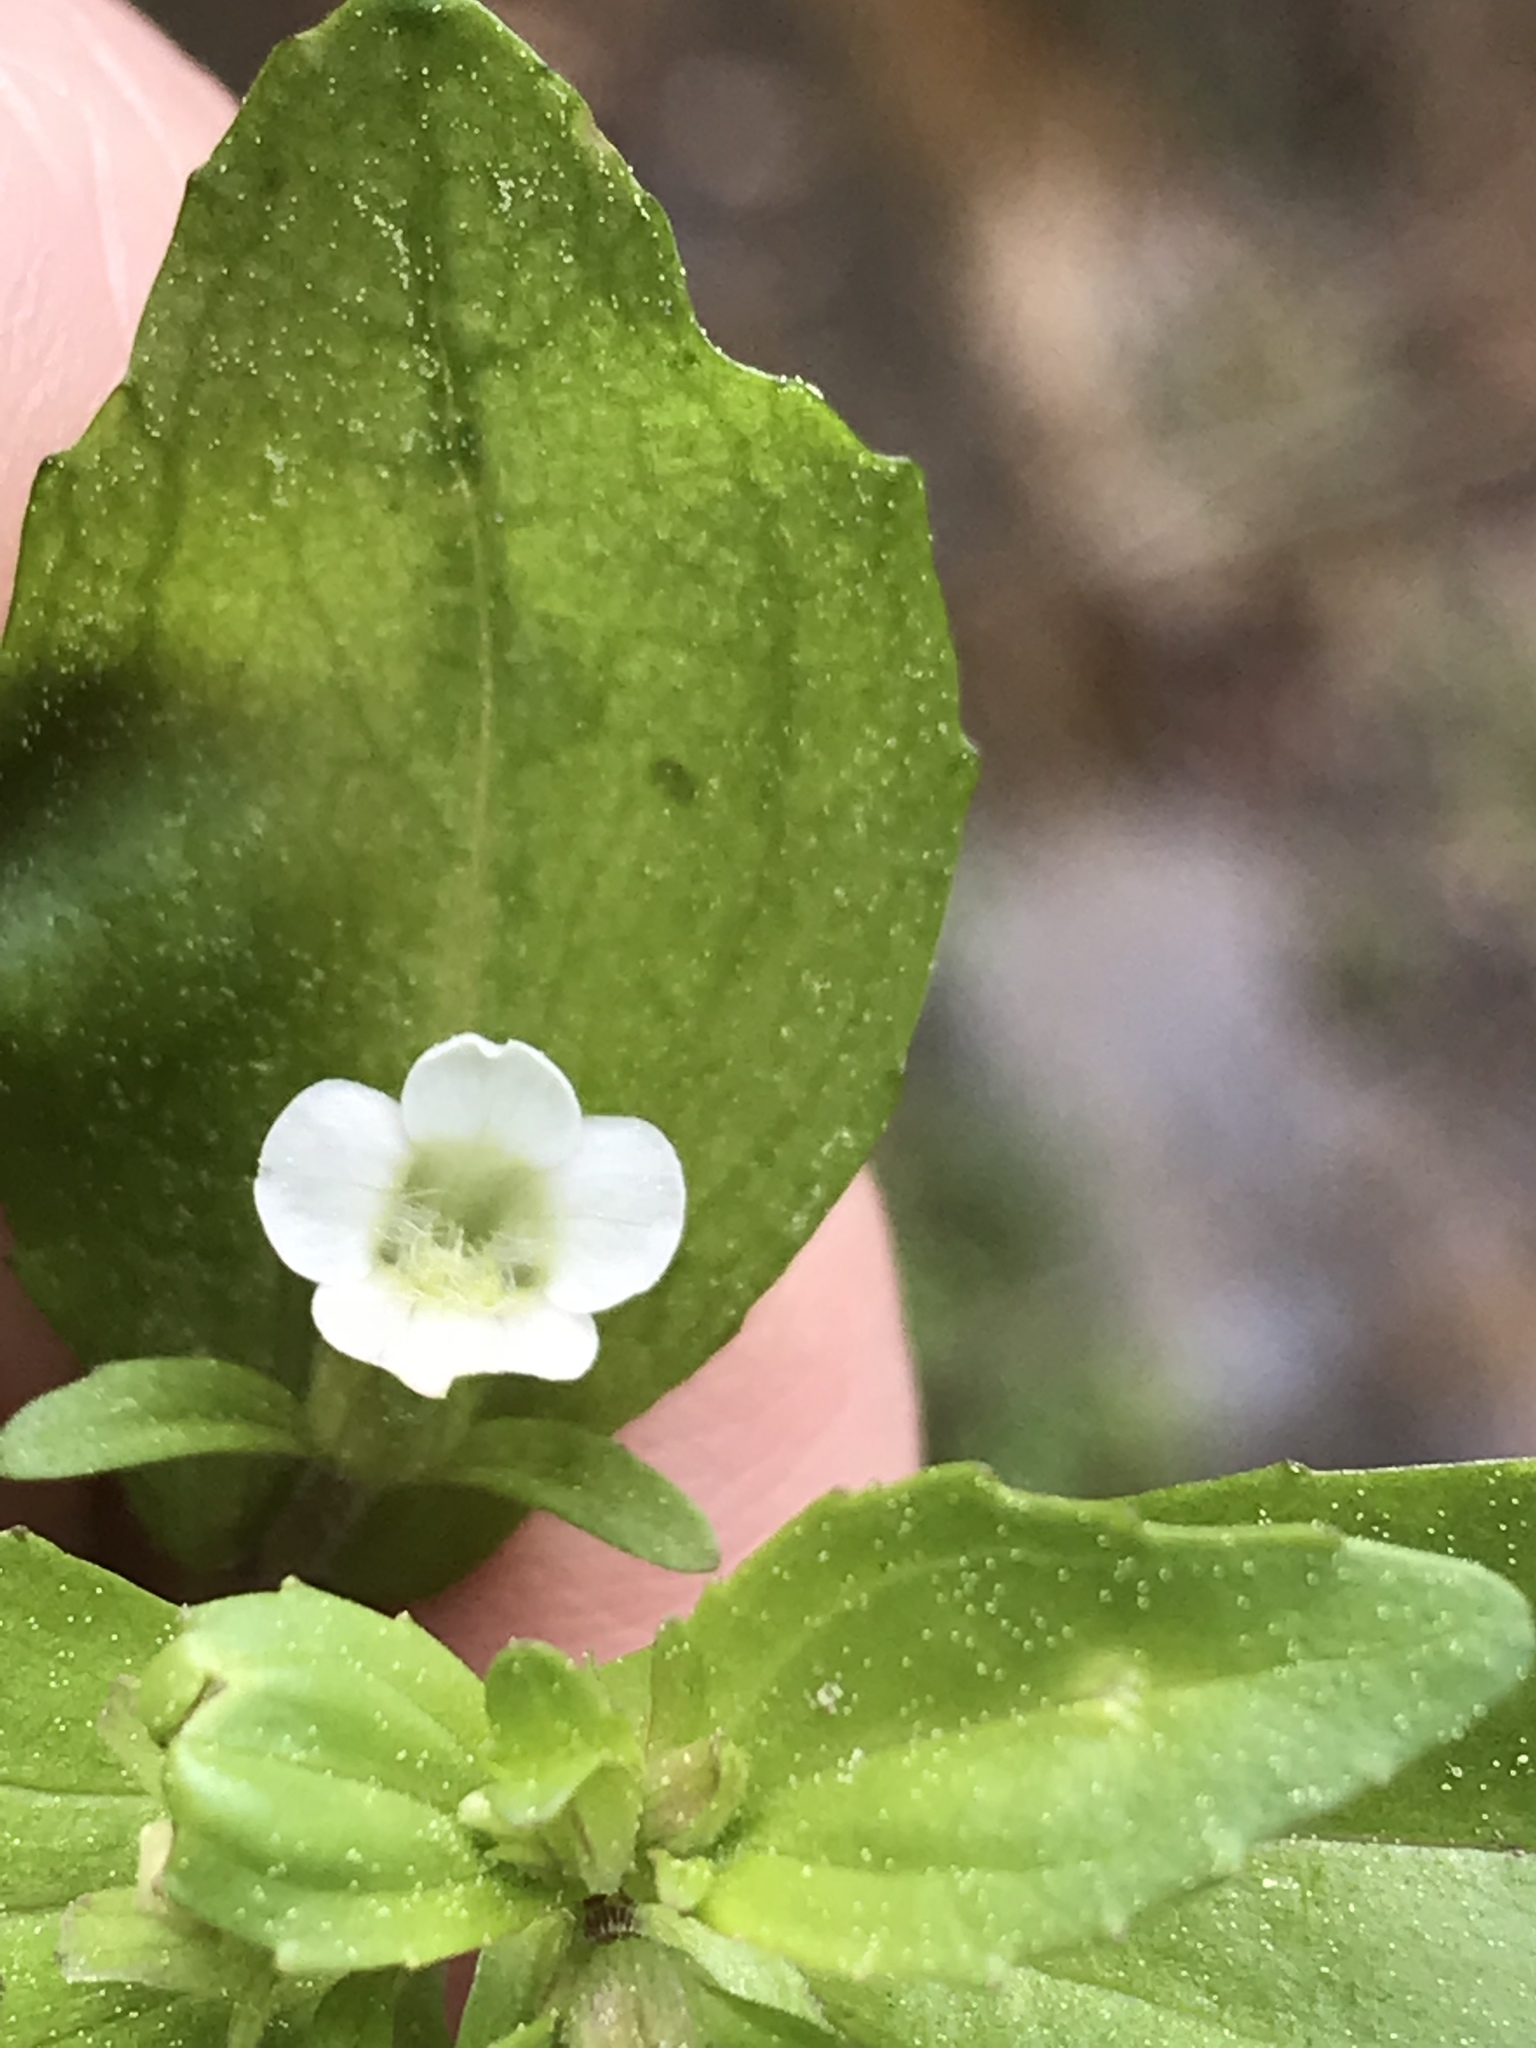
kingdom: Plantae
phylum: Tracheophyta
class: Magnoliopsida
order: Lamiales
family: Plantaginaceae
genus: Gratiola
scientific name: Gratiola virginiana
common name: Roundfruit hedgehyssop
